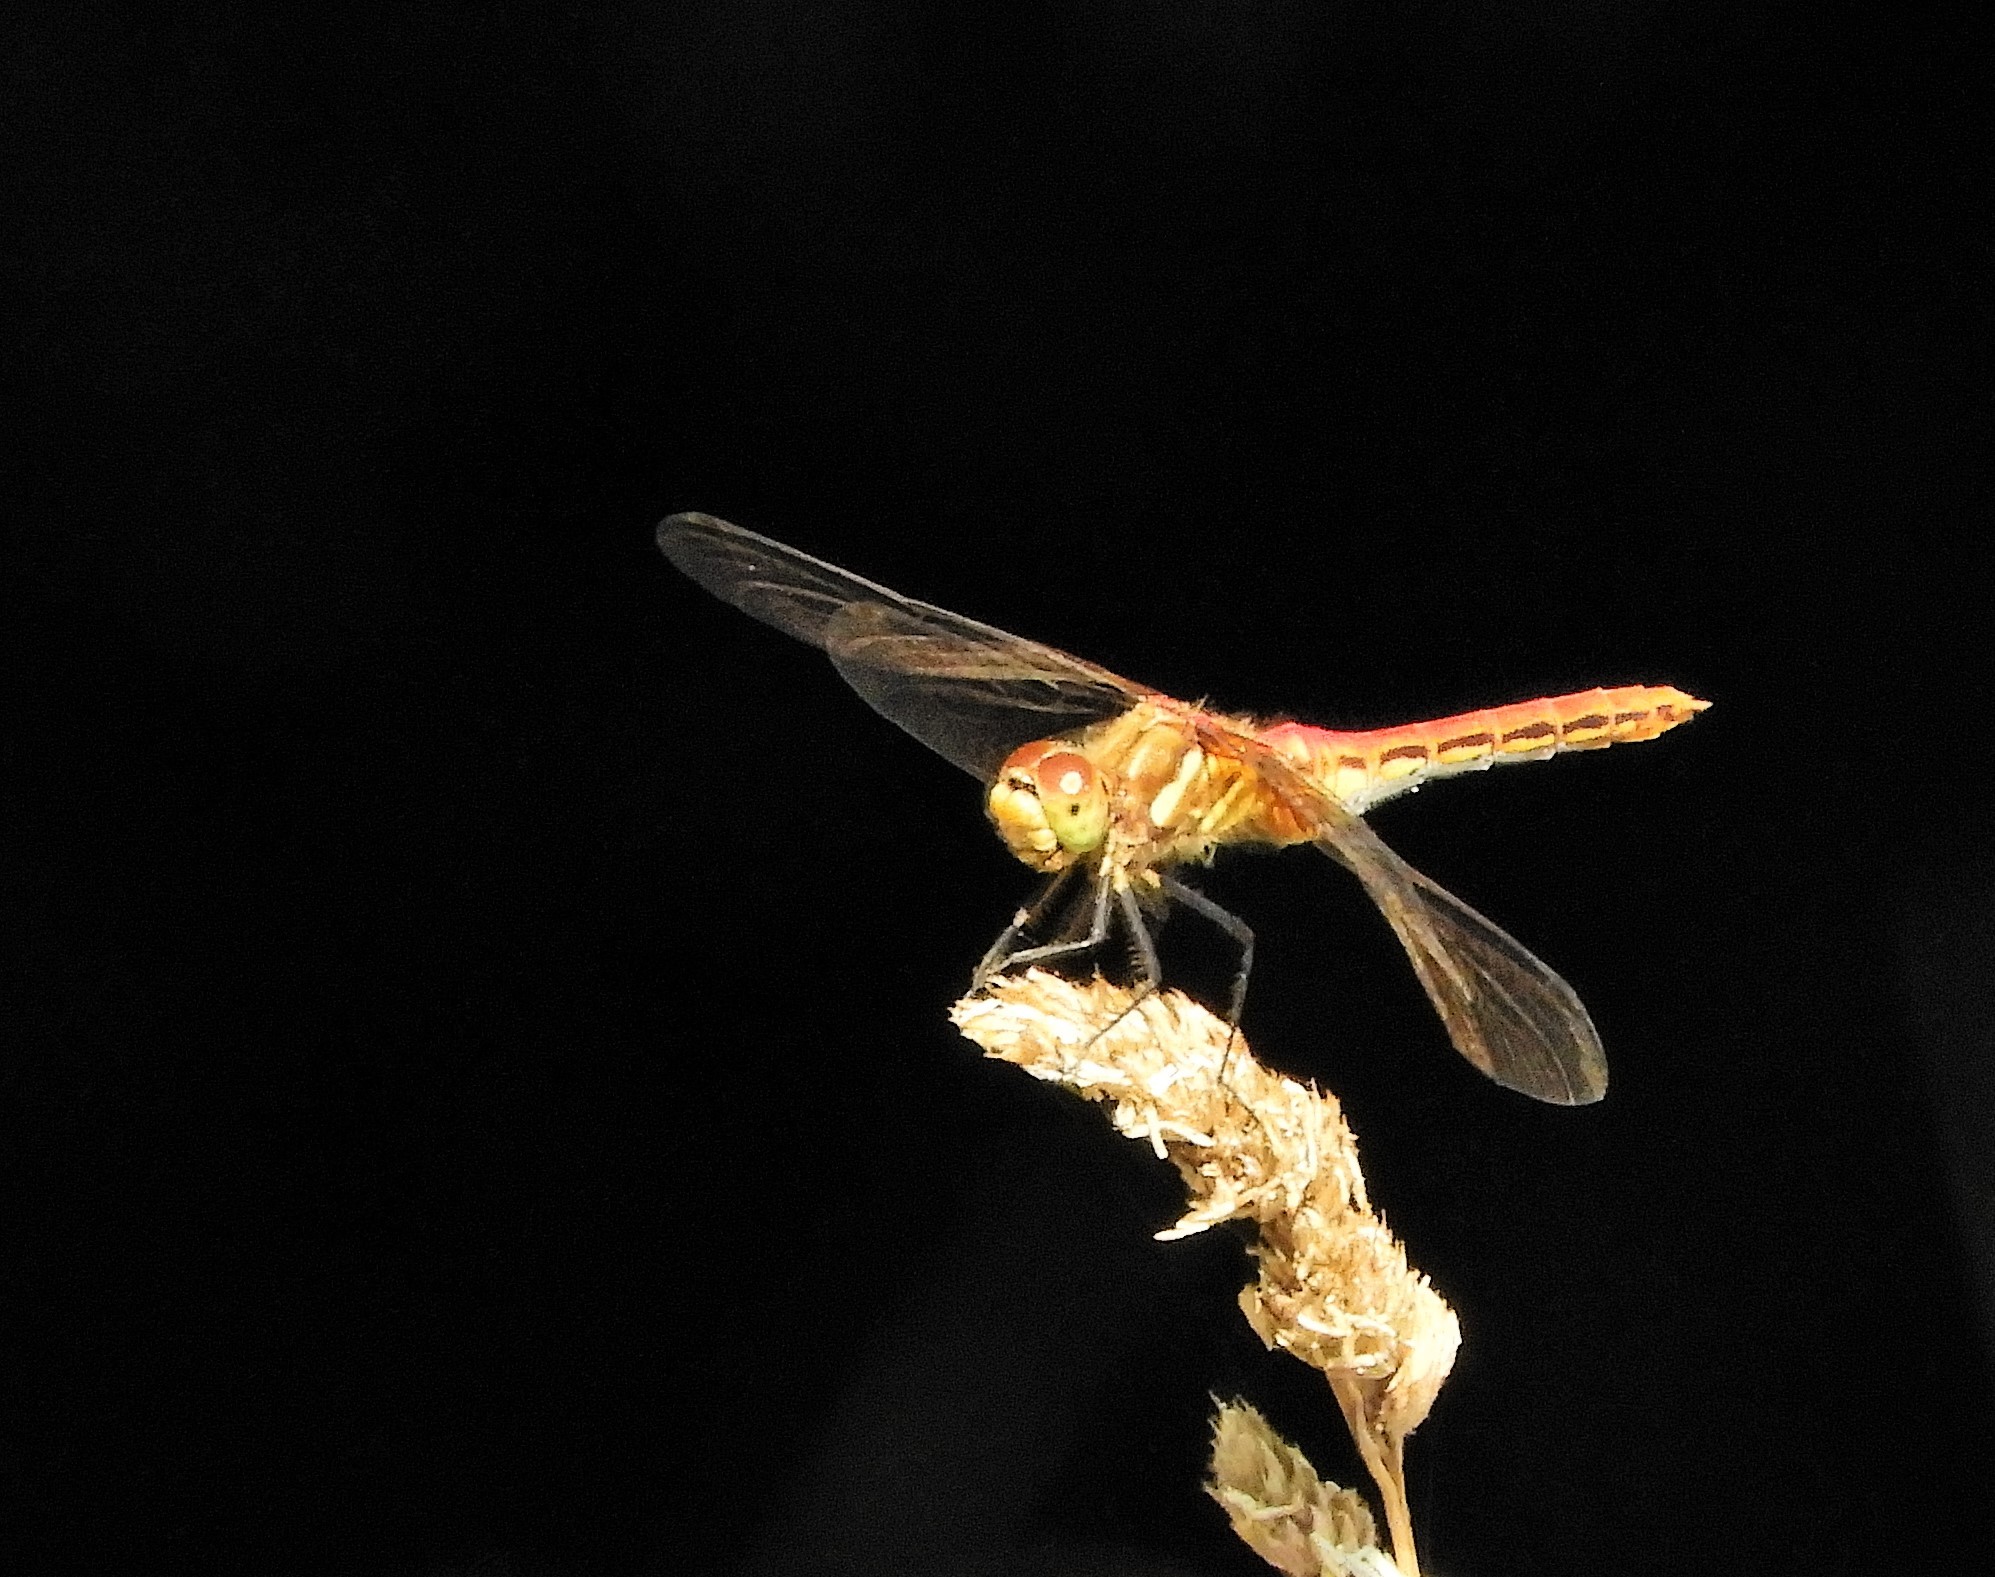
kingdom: Animalia
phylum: Arthropoda
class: Insecta
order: Odonata
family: Libellulidae
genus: Sympetrum
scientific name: Sympetrum pallipes
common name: Striped meadowhawk
